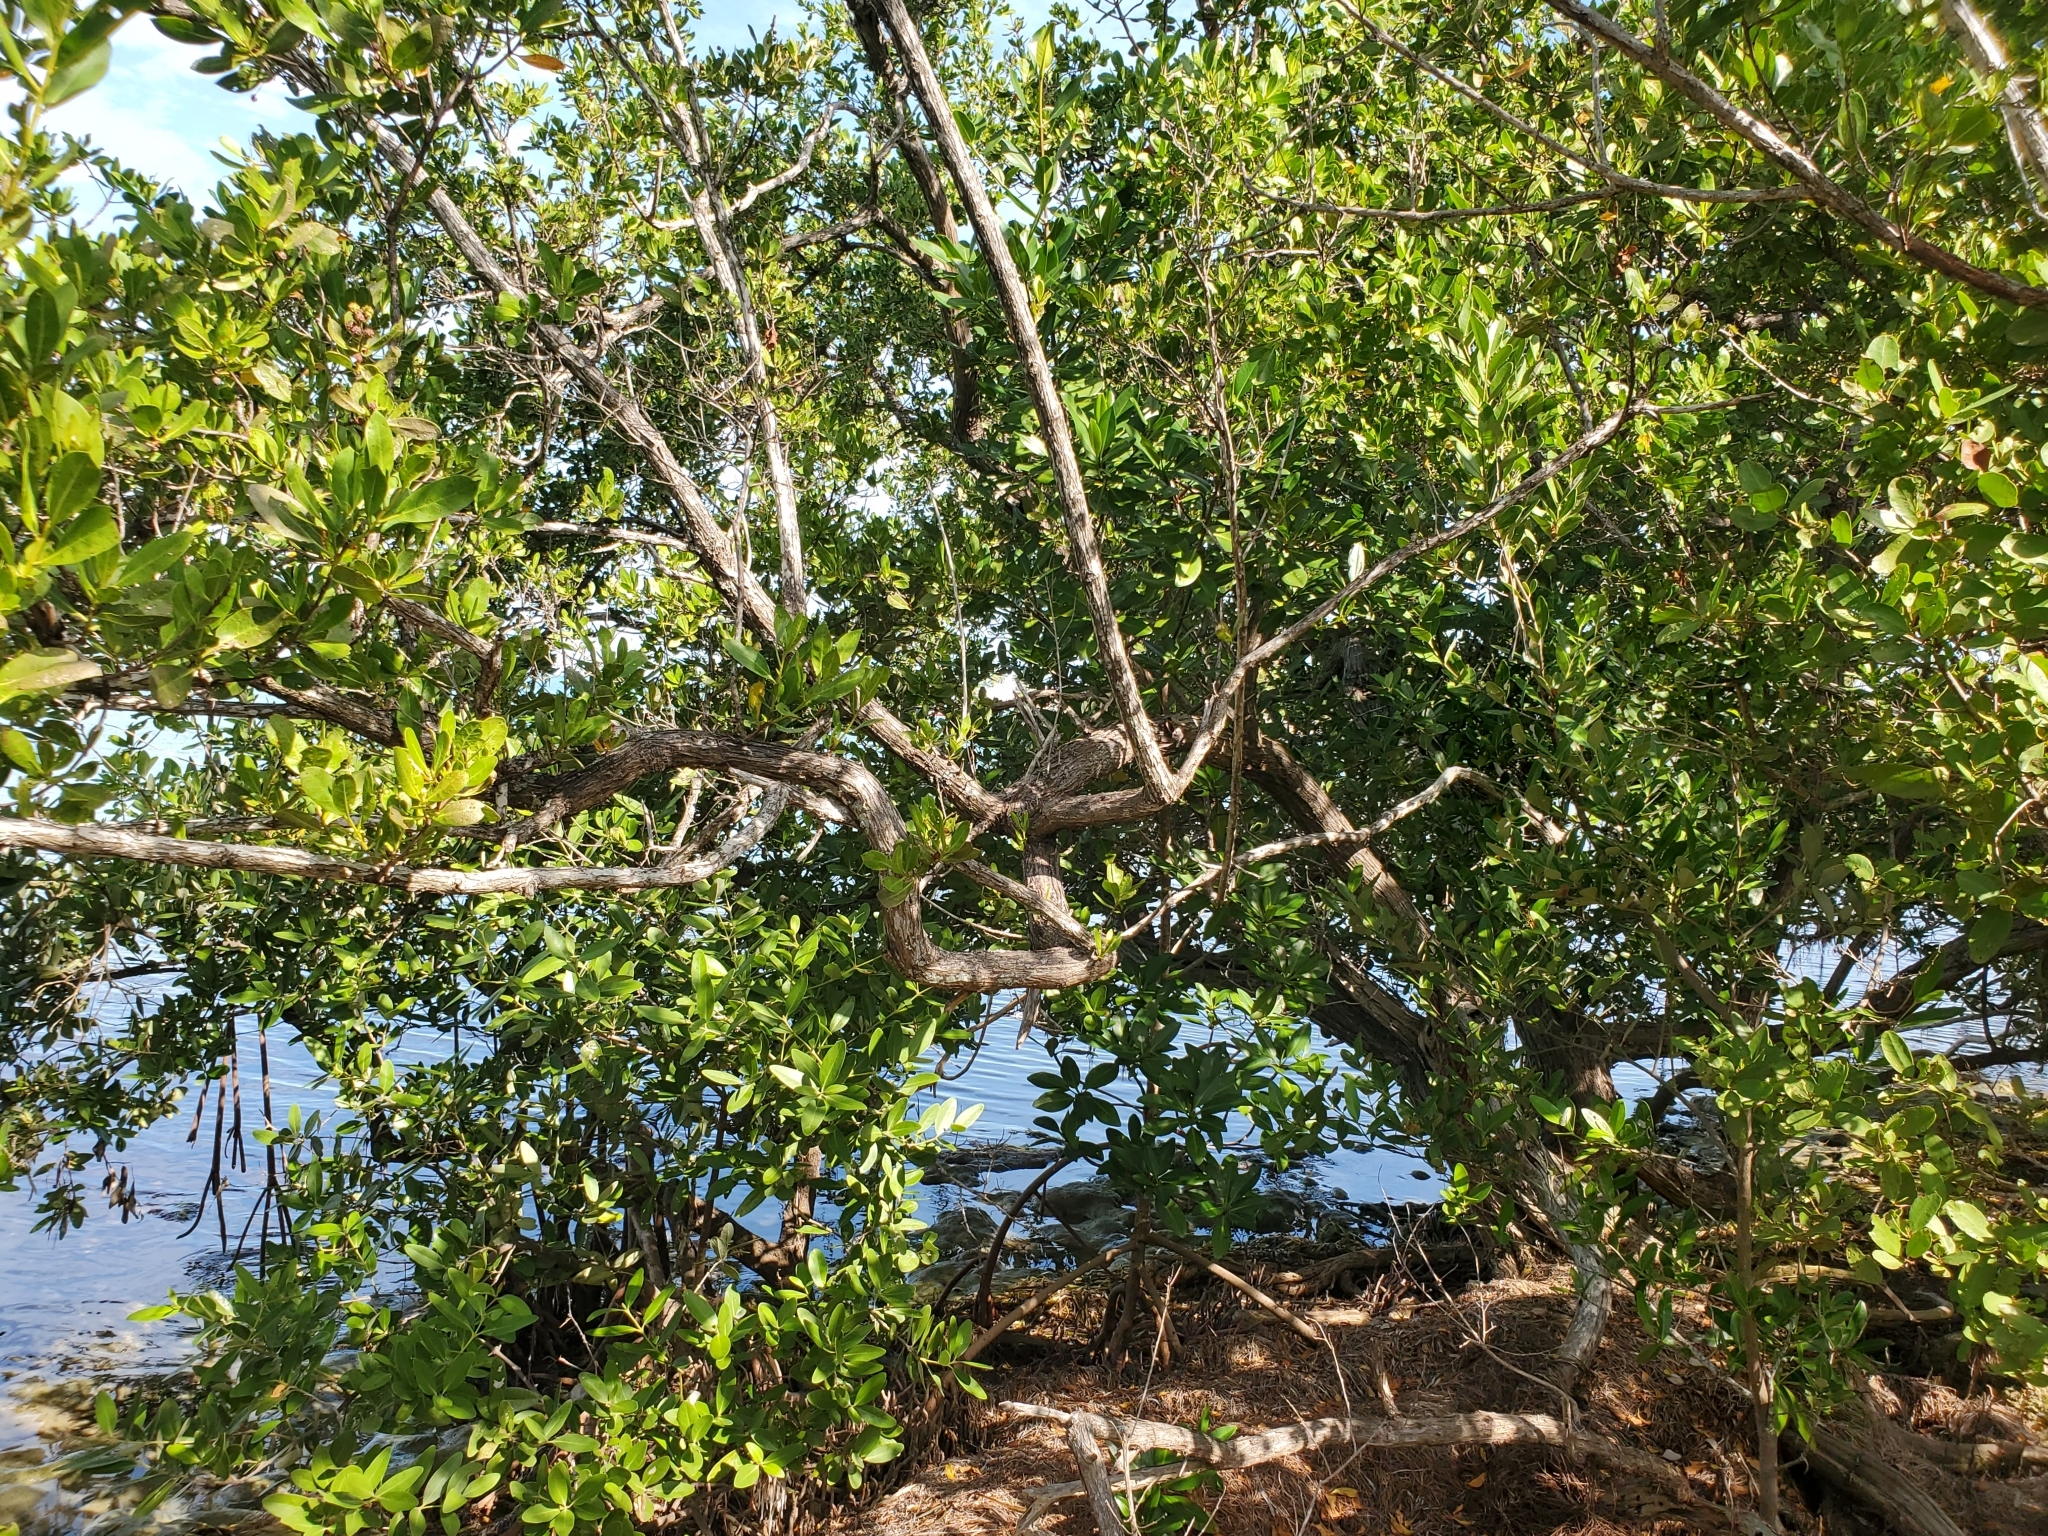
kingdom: Plantae
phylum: Tracheophyta
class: Magnoliopsida
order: Myrtales
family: Combretaceae
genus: Conocarpus
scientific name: Conocarpus erectus
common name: Button mangrove
